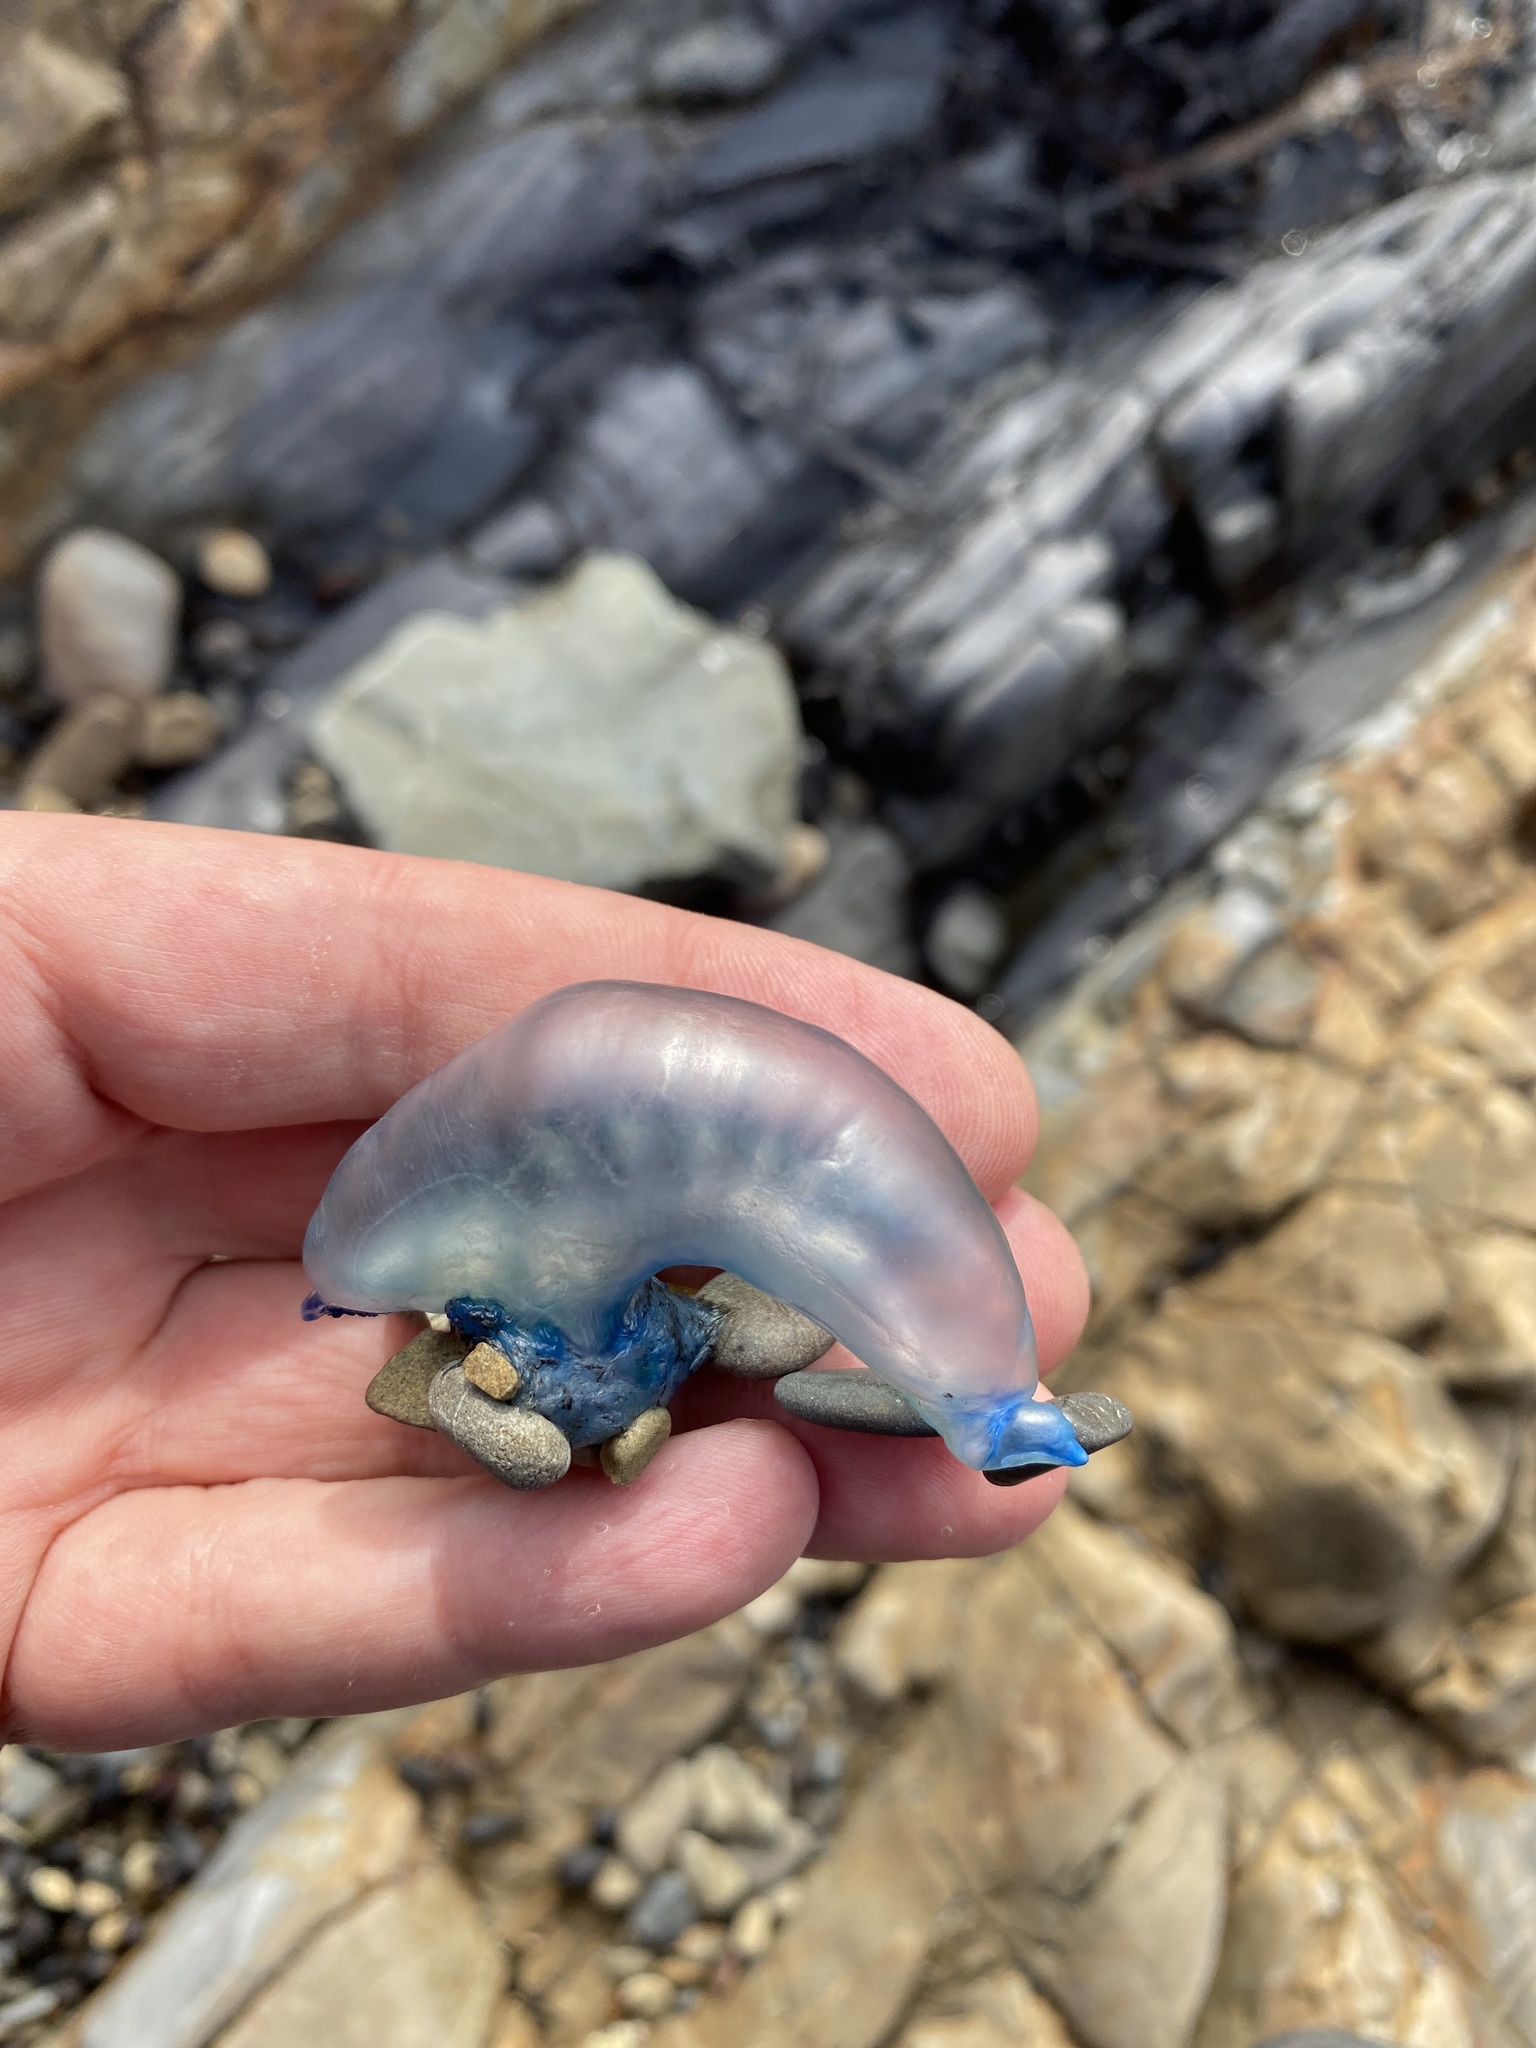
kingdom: Animalia
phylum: Cnidaria
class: Hydrozoa
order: Siphonophorae
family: Physaliidae
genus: Physalia
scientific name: Physalia physalis
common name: Portuguese man-of-war
